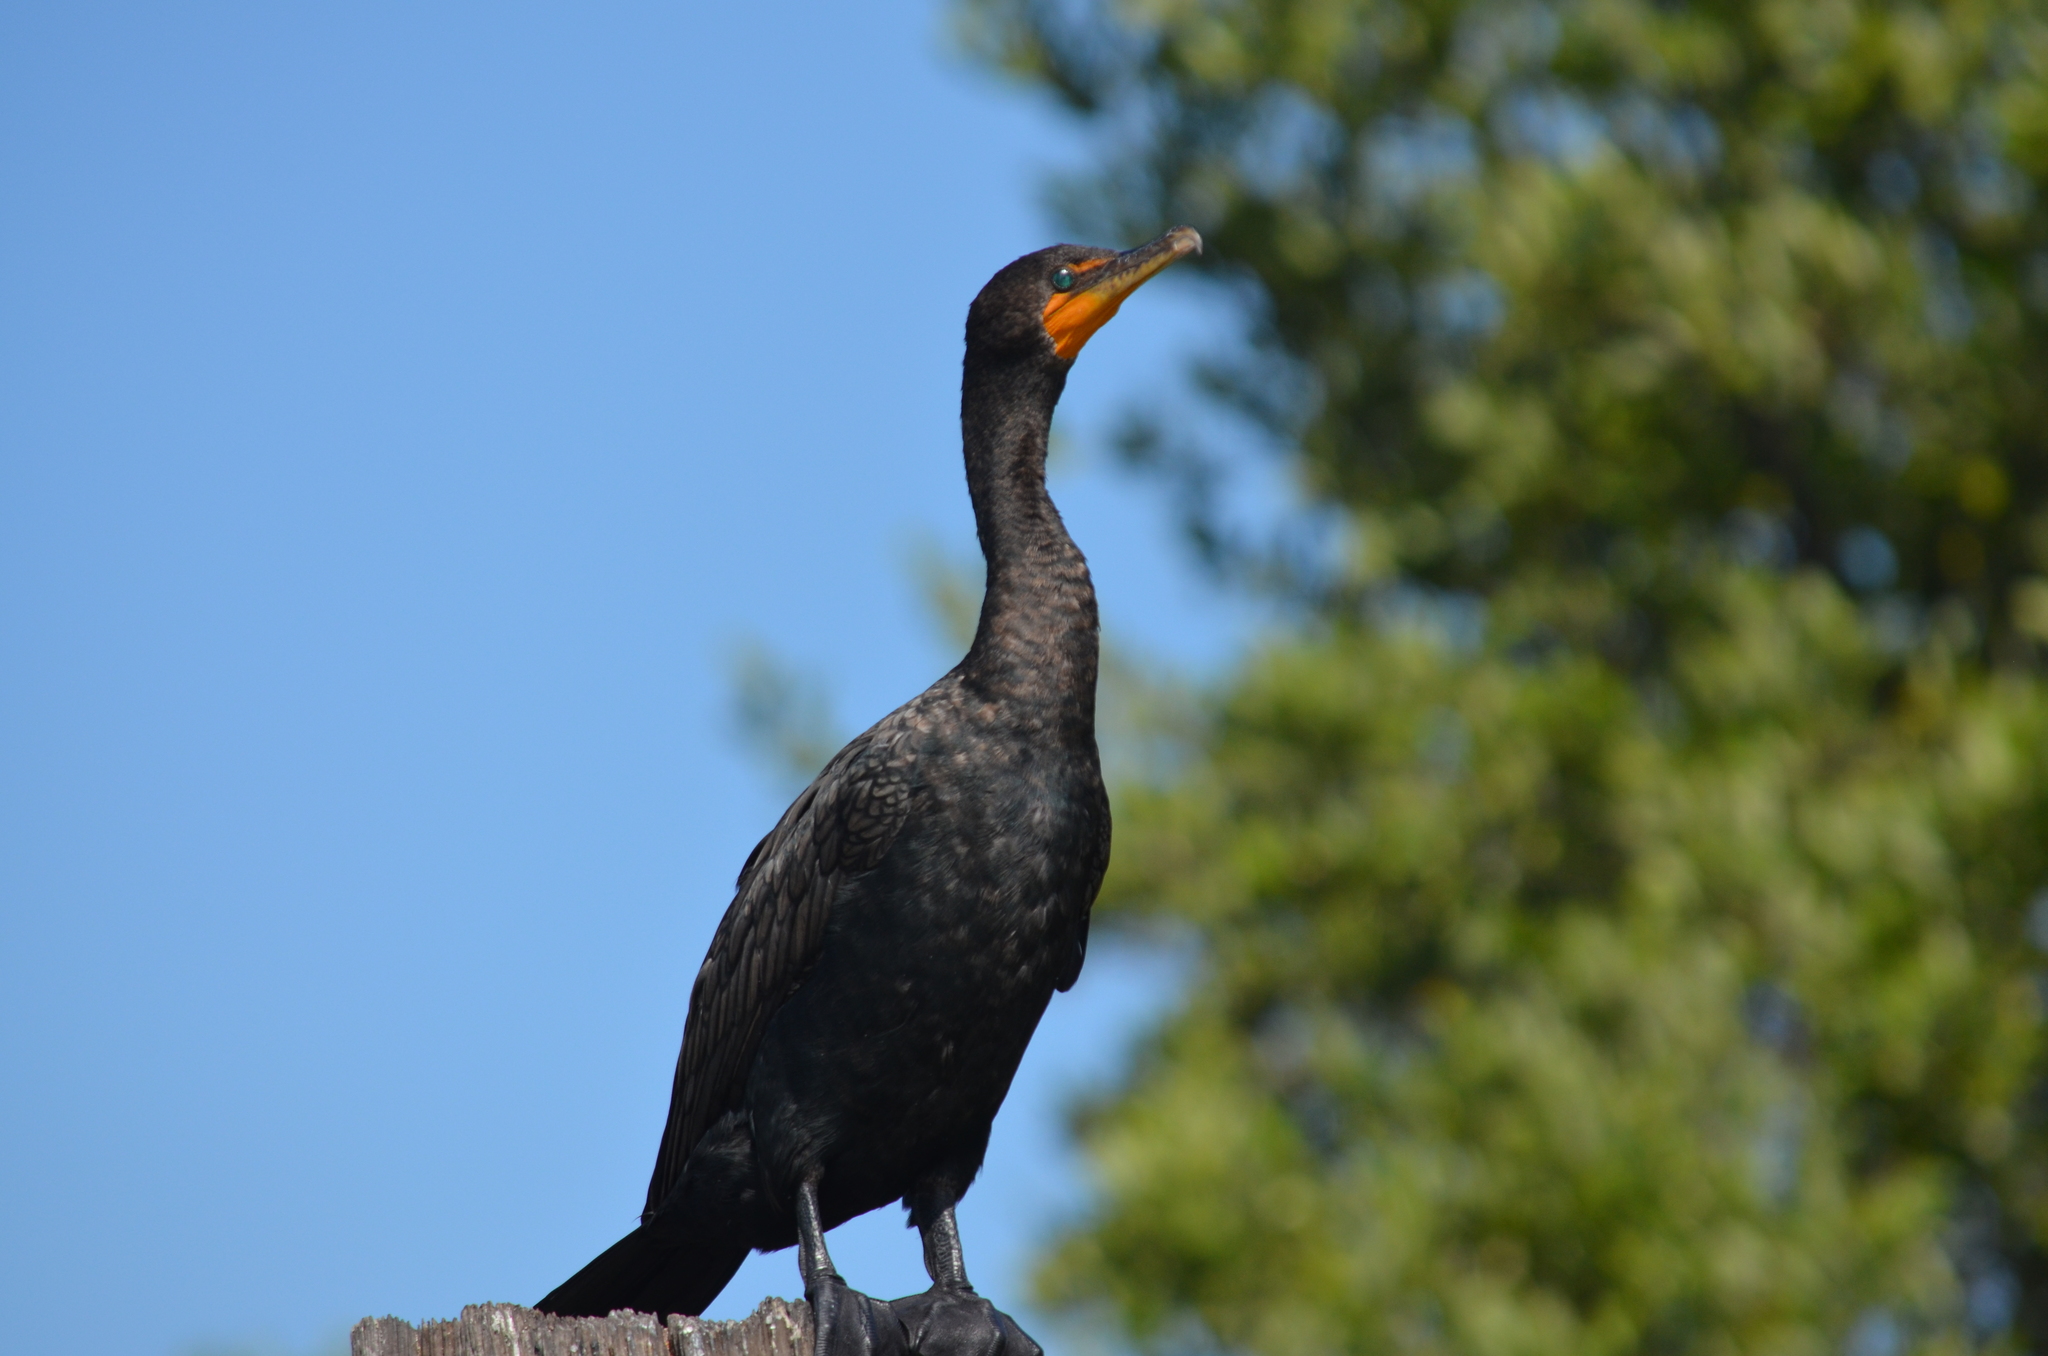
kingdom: Animalia
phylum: Chordata
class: Aves
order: Suliformes
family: Phalacrocoracidae
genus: Phalacrocorax
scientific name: Phalacrocorax auritus
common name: Double-crested cormorant
